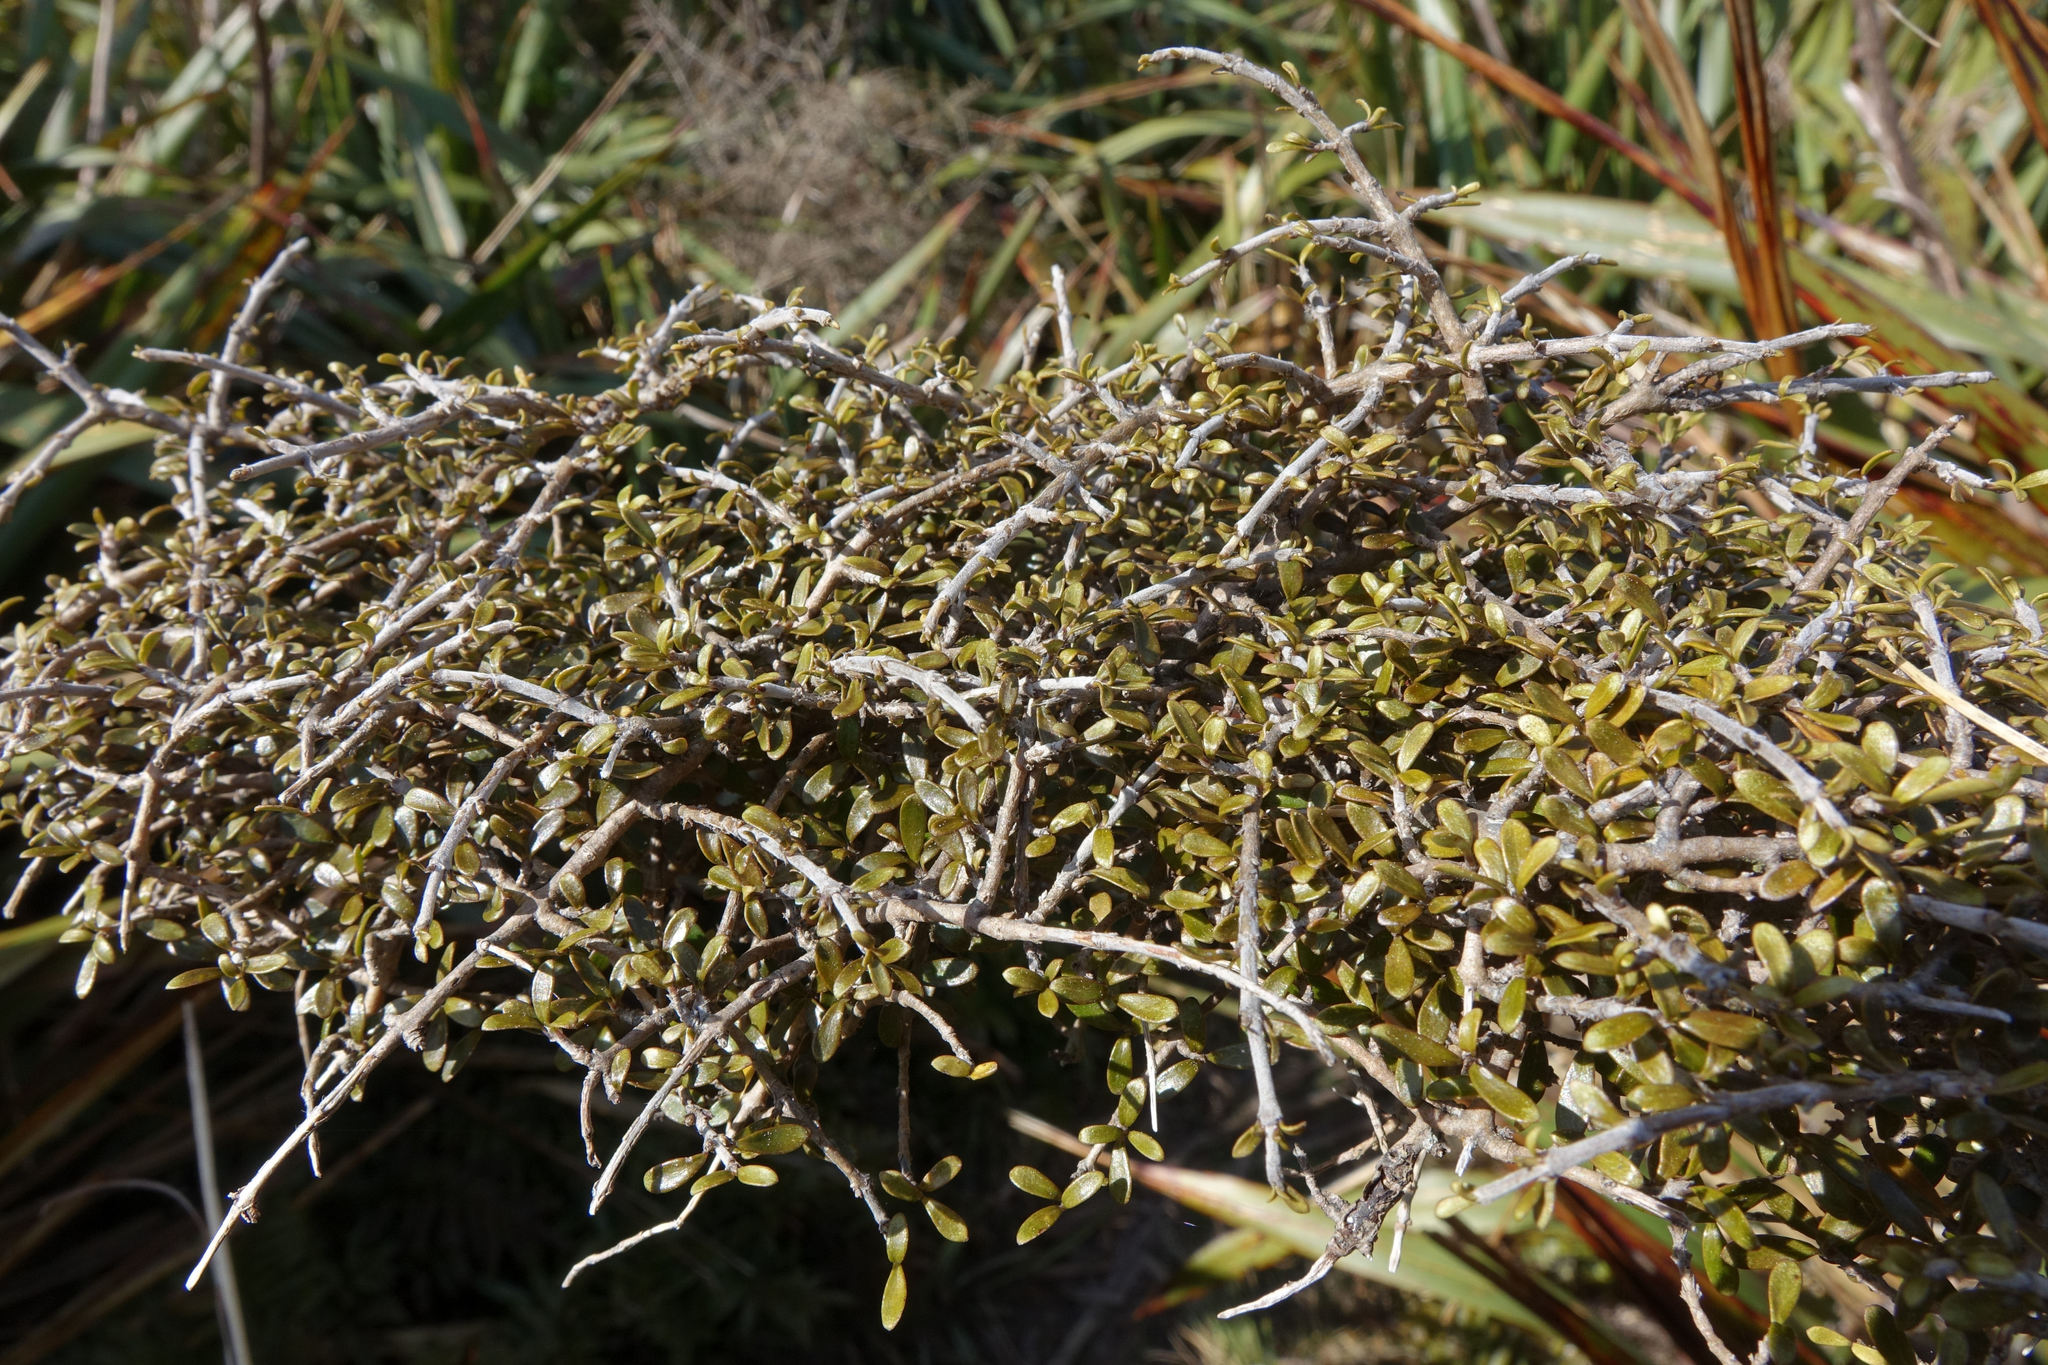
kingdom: Plantae
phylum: Tracheophyta
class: Magnoliopsida
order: Gentianales
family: Rubiaceae
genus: Coprosma
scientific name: Coprosma dumosa
